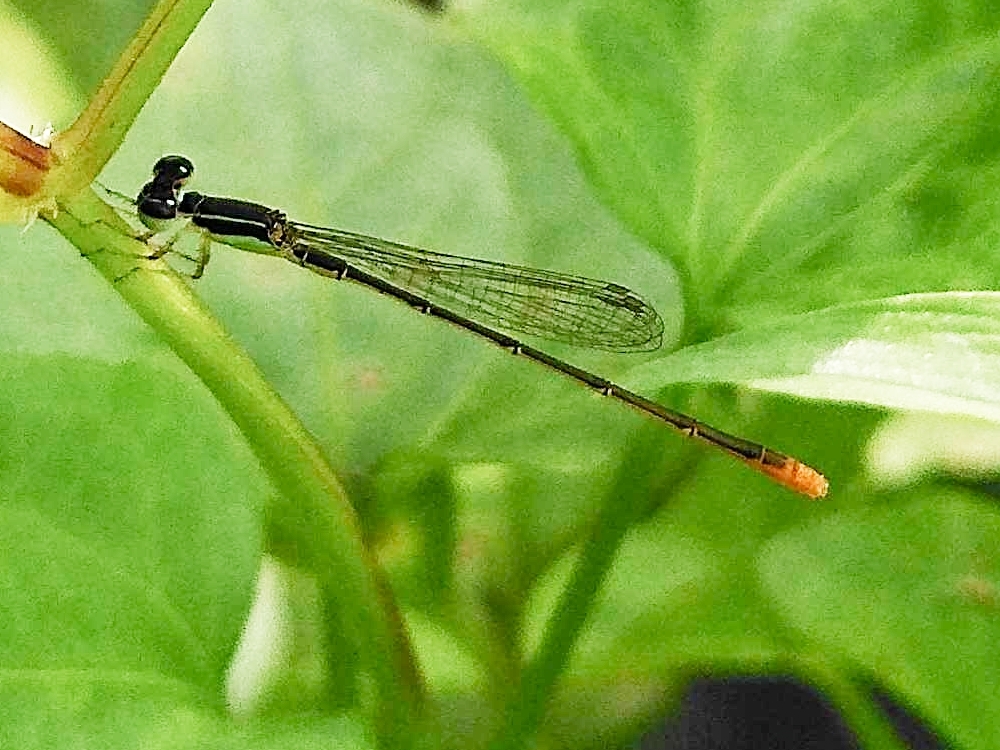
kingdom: Animalia
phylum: Arthropoda
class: Insecta
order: Odonata
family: Coenagrionidae
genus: Agriocnemis
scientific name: Agriocnemis pygmaea
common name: Pygmy wisp
